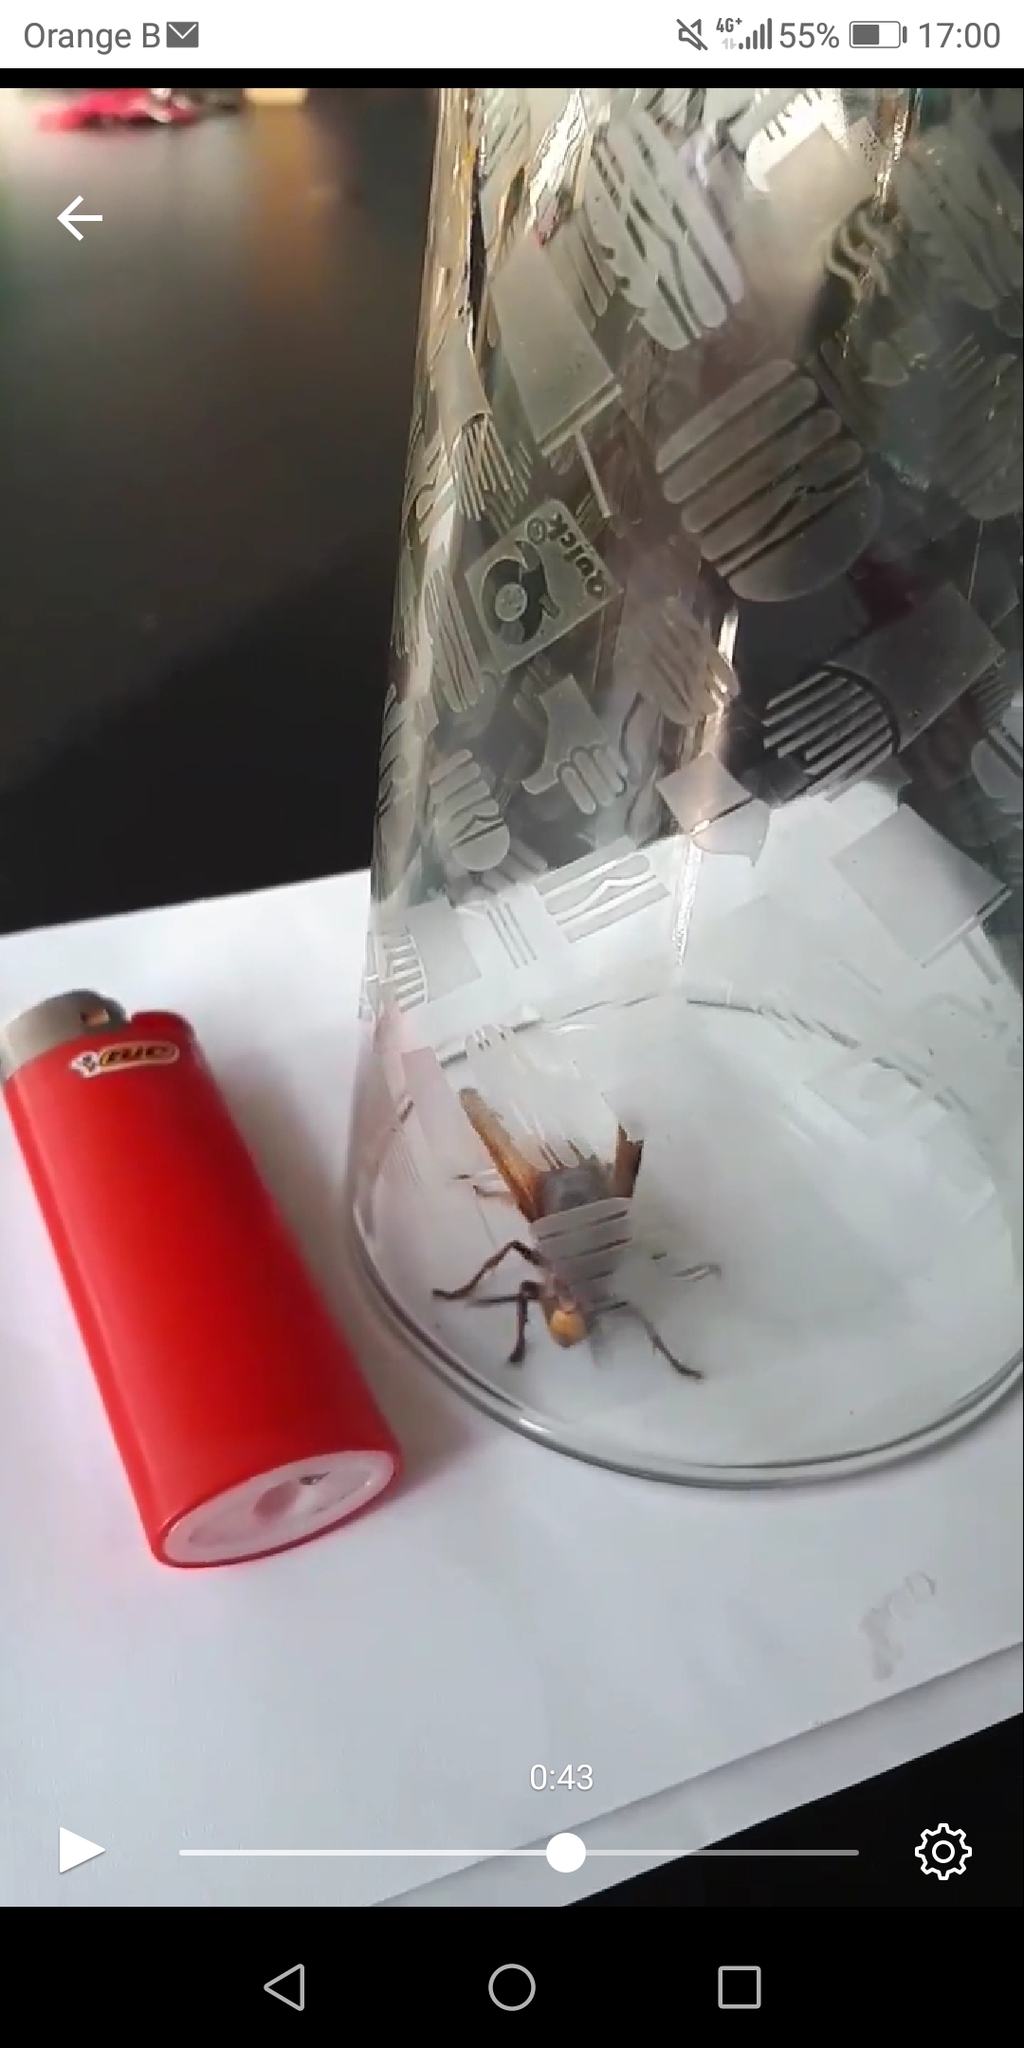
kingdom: Animalia
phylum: Arthropoda
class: Insecta
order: Hymenoptera
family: Vespidae
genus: Vespa
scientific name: Vespa crabro
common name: Hornet
